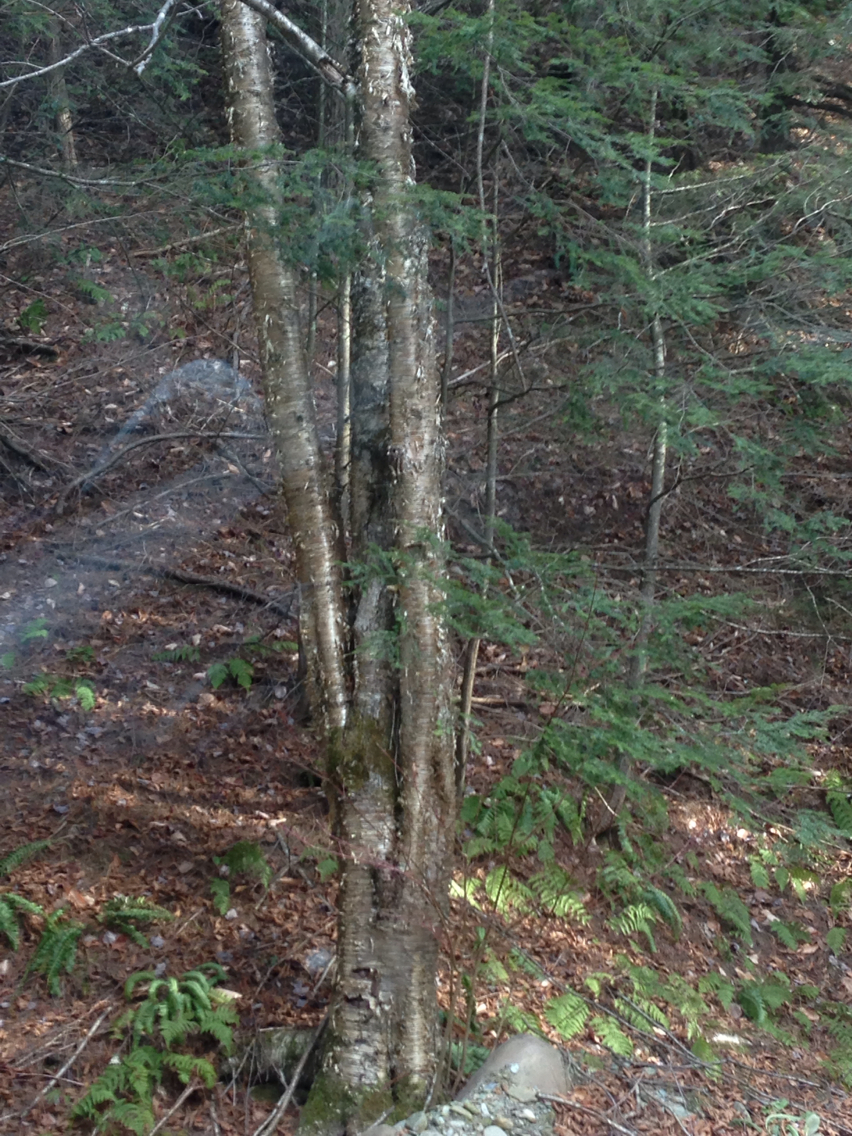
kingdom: Plantae
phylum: Tracheophyta
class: Magnoliopsida
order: Fagales
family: Betulaceae
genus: Betula
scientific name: Betula alleghaniensis
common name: Yellow birch
